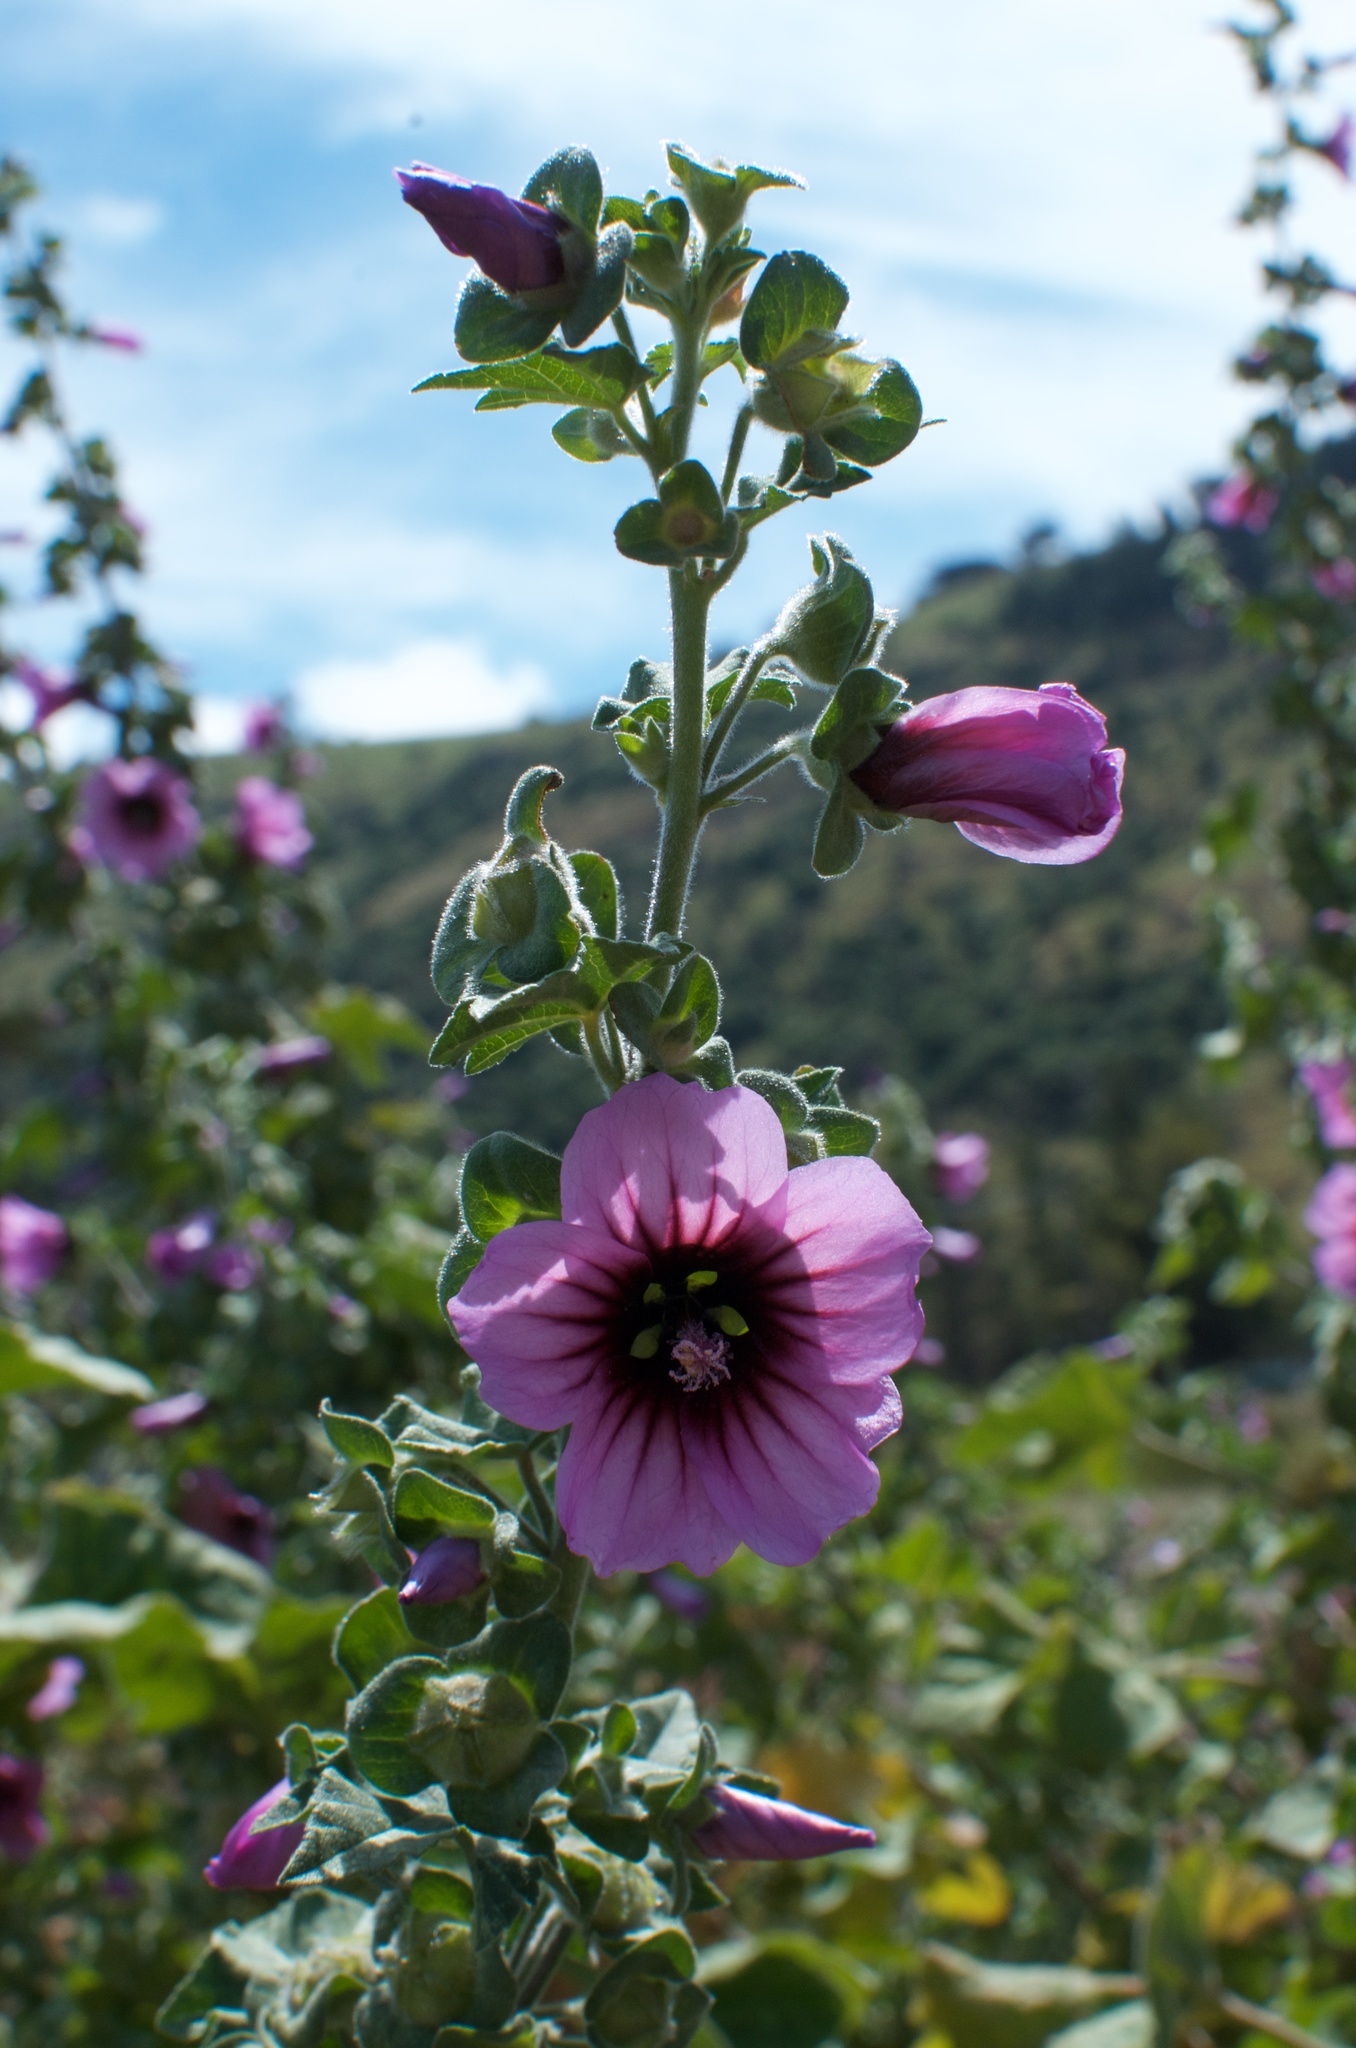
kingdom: Plantae
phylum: Tracheophyta
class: Magnoliopsida
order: Malvales
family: Malvaceae
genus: Malva
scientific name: Malva arborea
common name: Tree mallow
